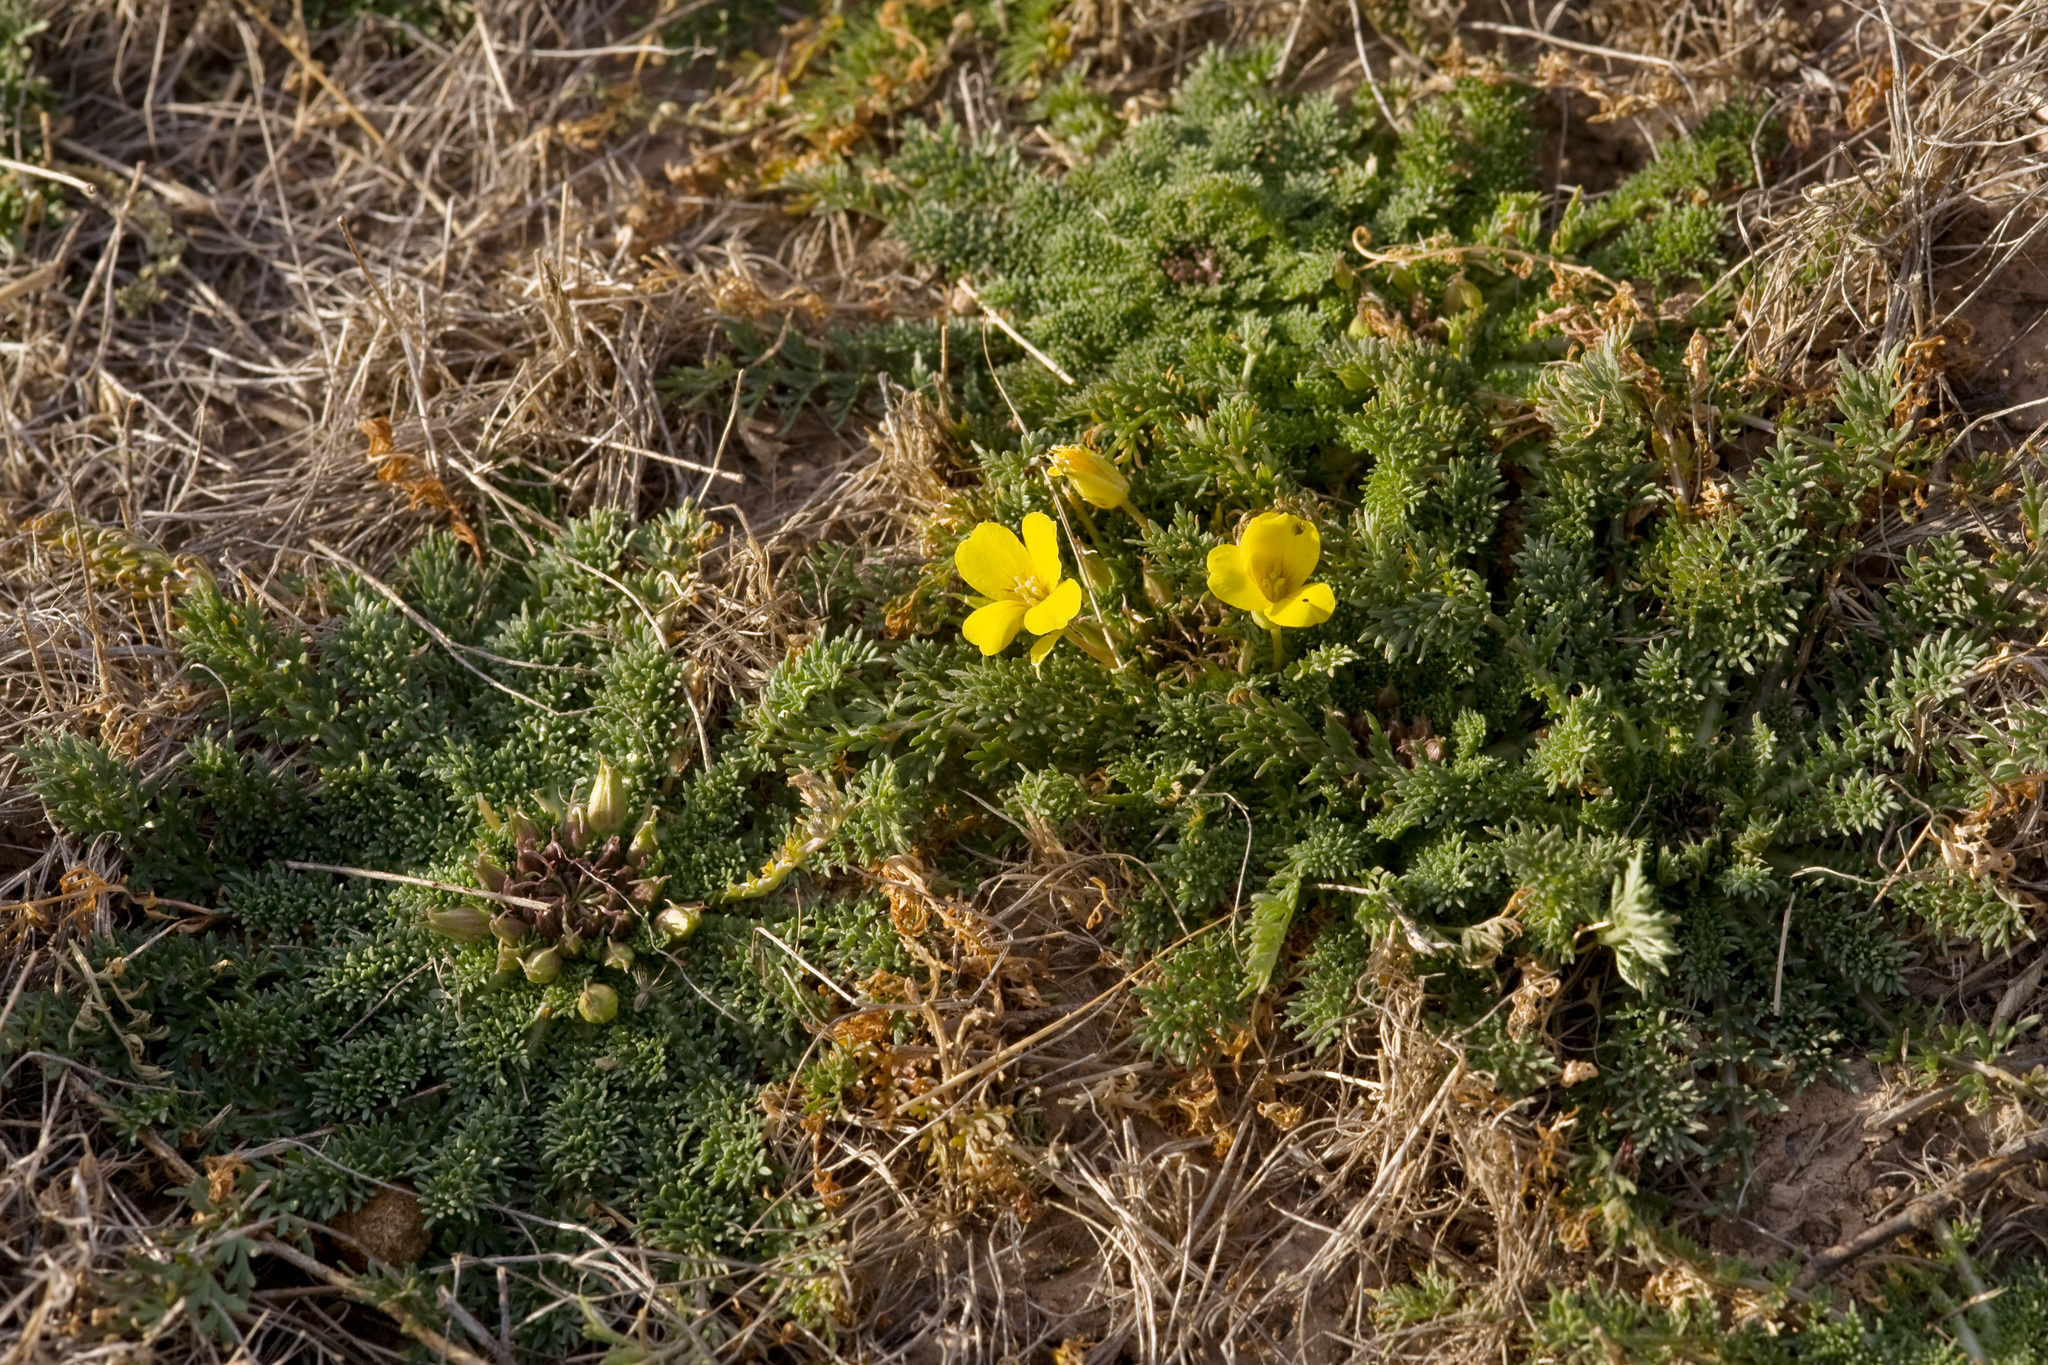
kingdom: Plantae
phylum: Tracheophyta
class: Magnoliopsida
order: Brassicales
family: Brassicaceae
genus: Selenia
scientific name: Selenia dissecta
